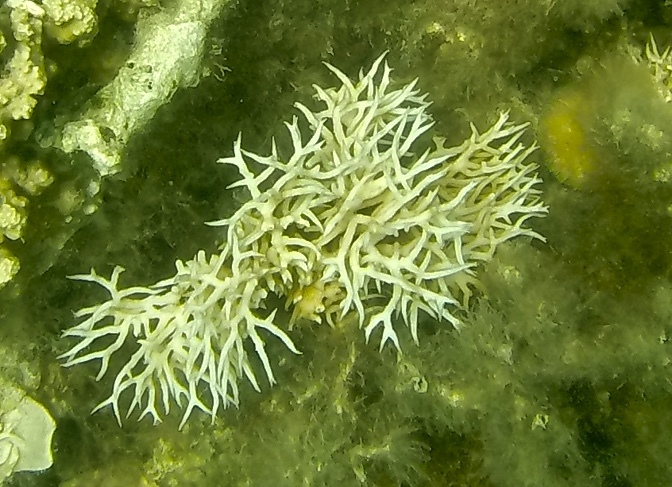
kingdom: Animalia
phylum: Cnidaria
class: Anthozoa
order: Scleractinia
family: Pocilloporidae
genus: Seriatopora
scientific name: Seriatopora hystrix
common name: Bush coral
